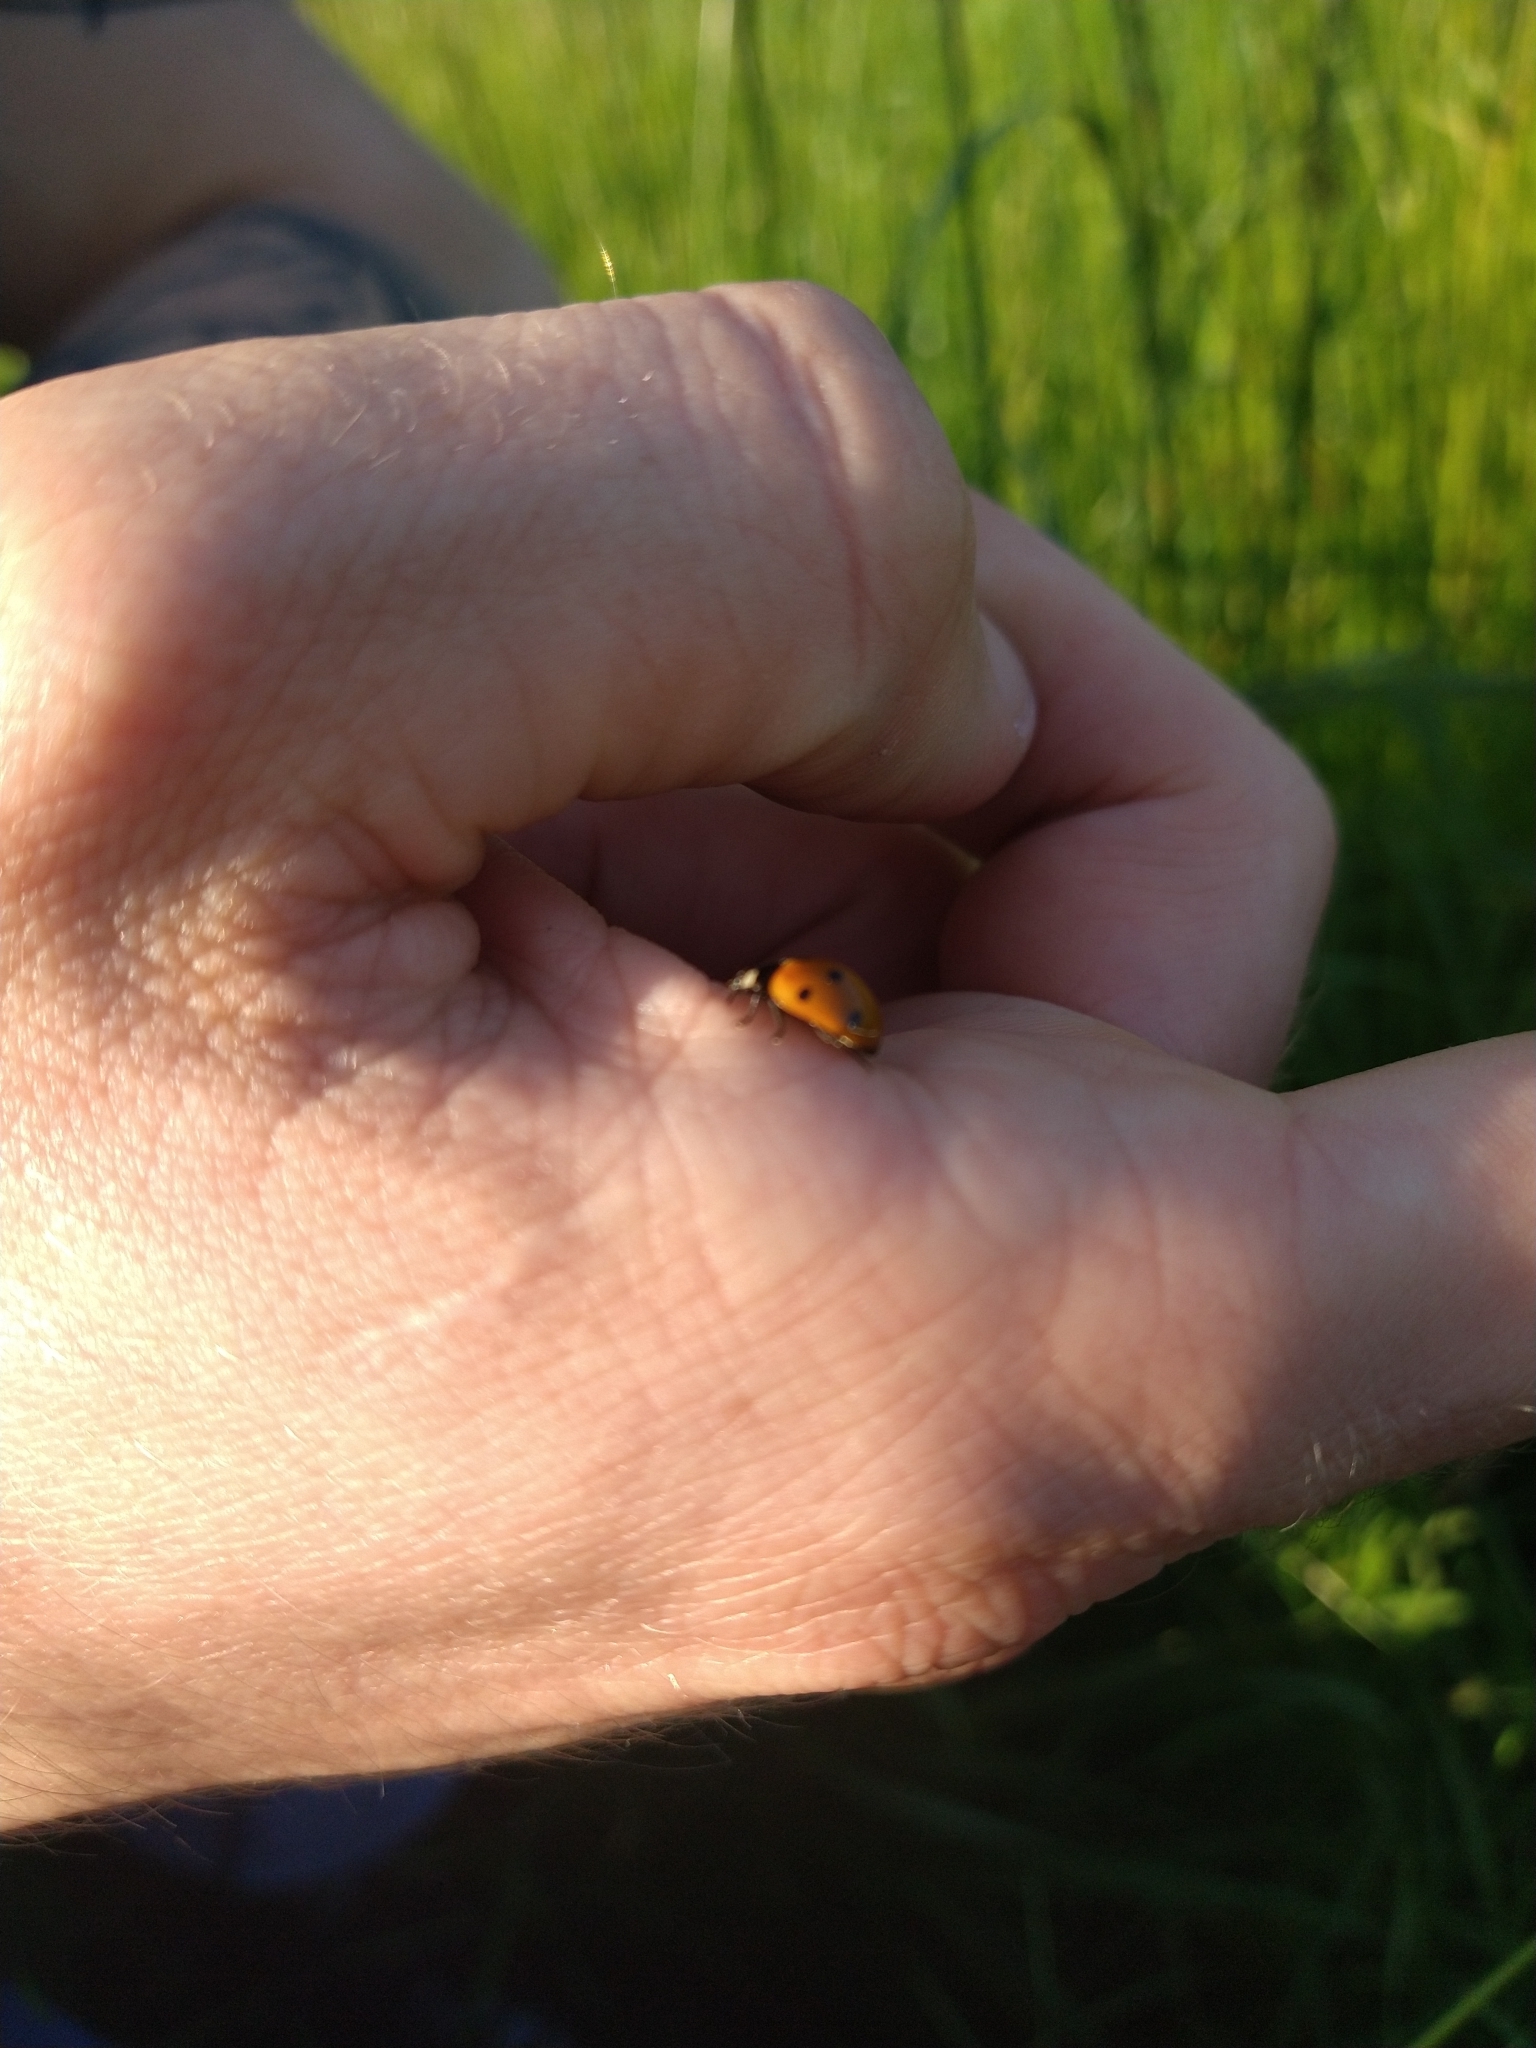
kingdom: Animalia
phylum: Arthropoda
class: Insecta
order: Coleoptera
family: Coccinellidae
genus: Coccinella
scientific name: Coccinella septempunctata
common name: Sevenspotted lady beetle
